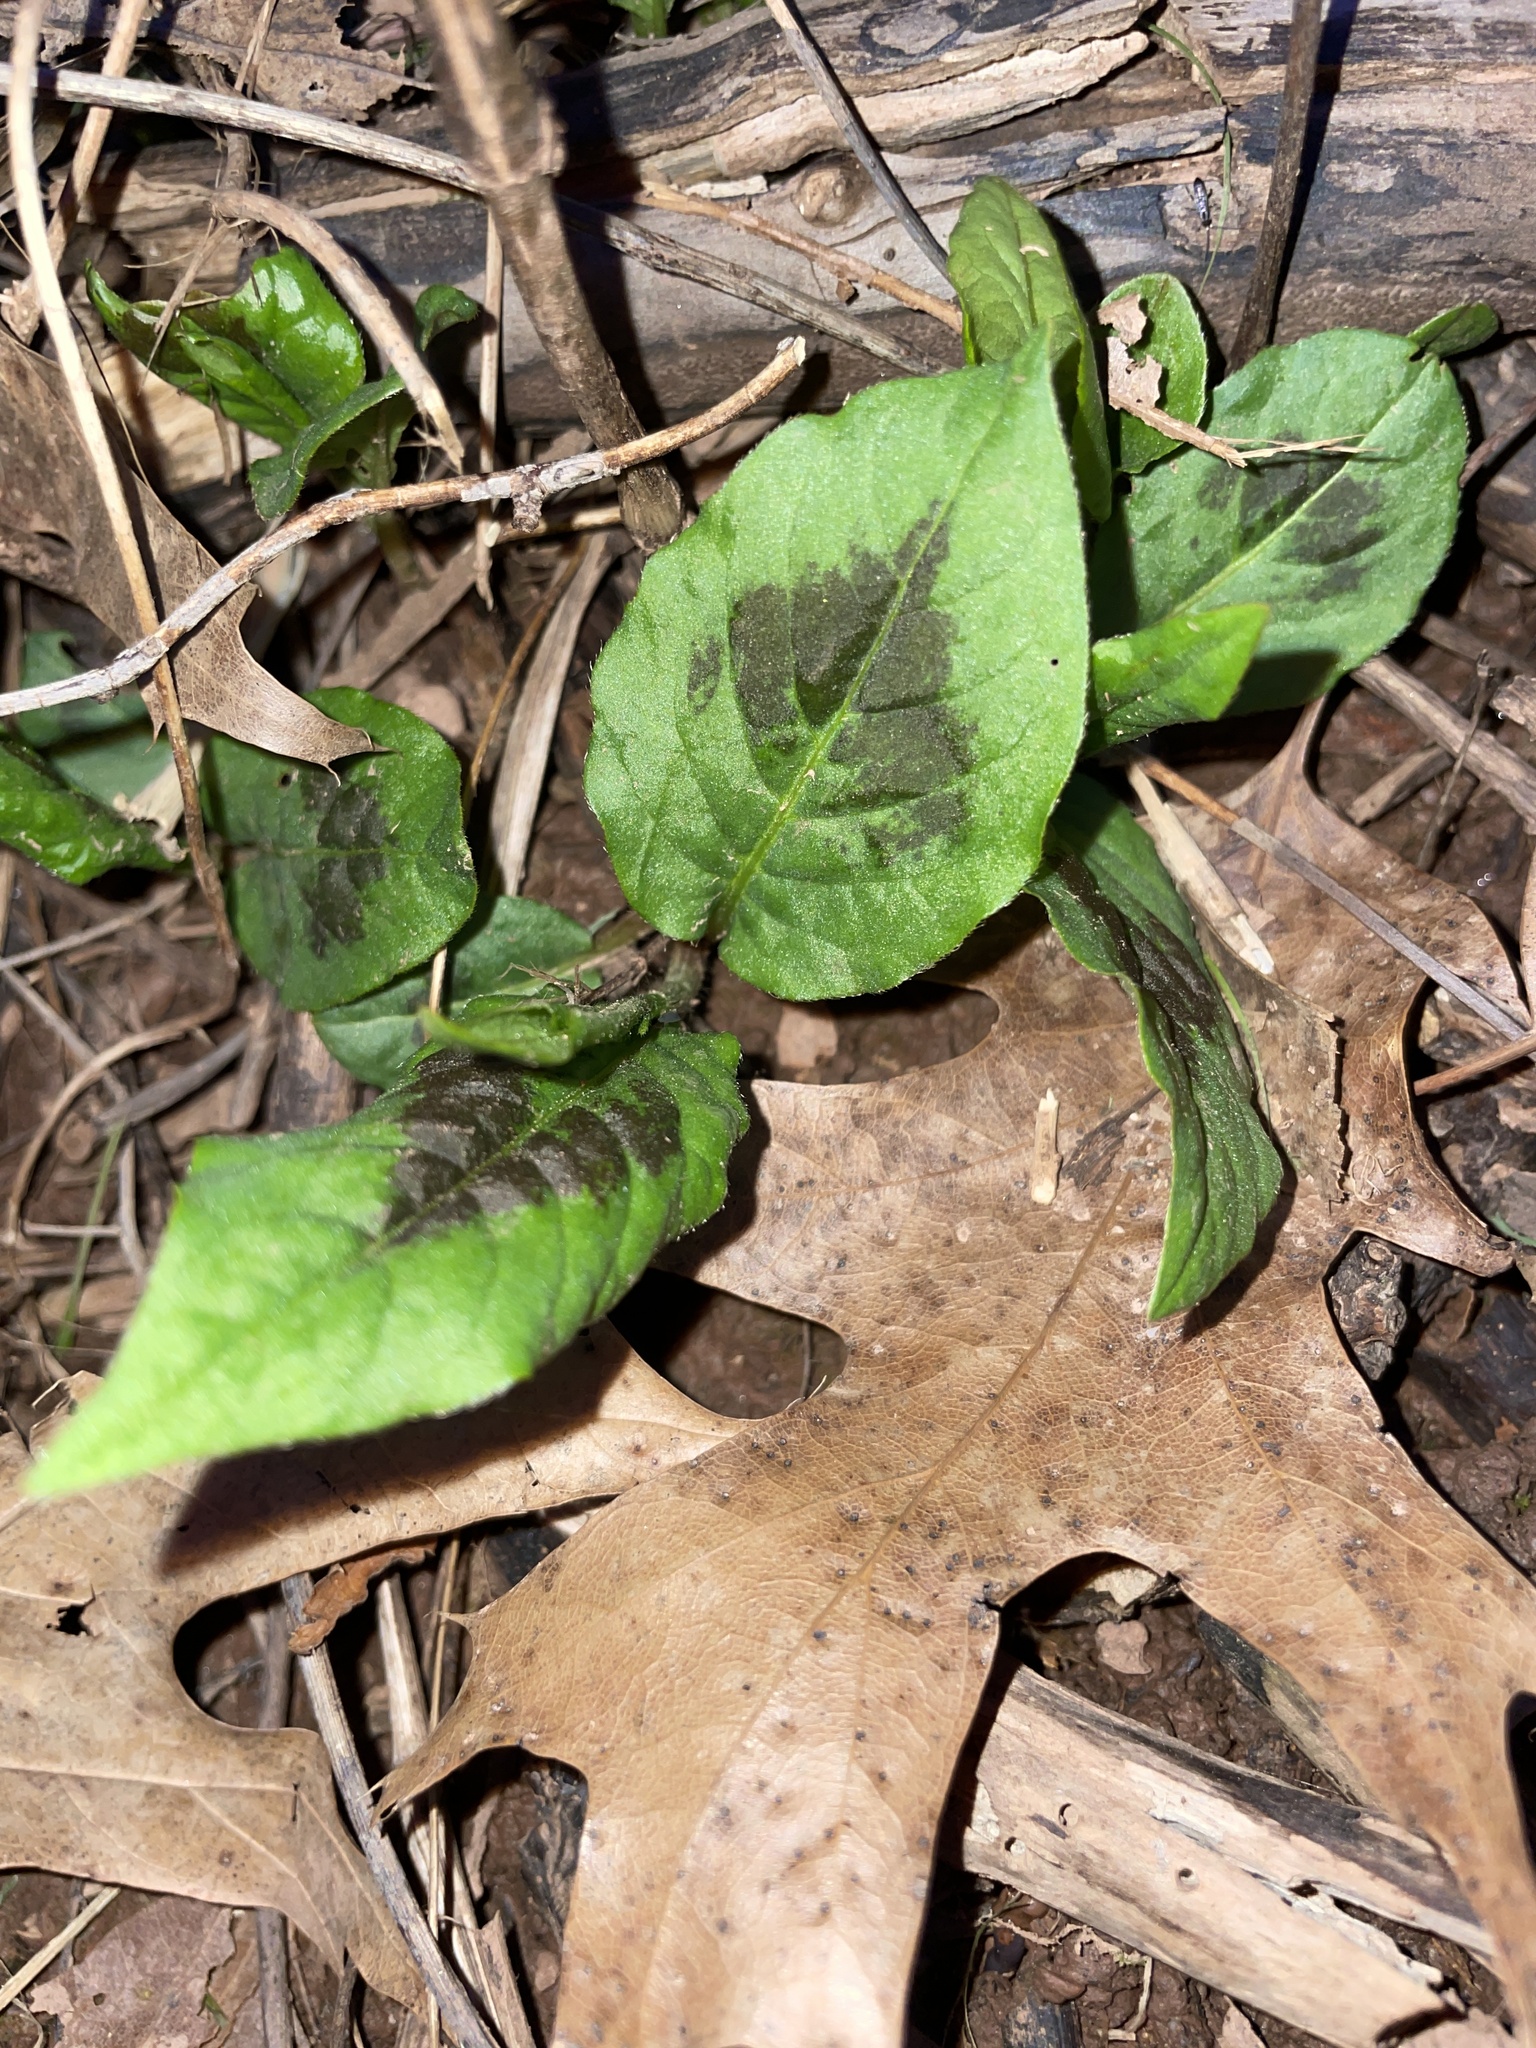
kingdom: Plantae
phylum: Tracheophyta
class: Magnoliopsida
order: Caryophyllales
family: Polygonaceae
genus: Persicaria
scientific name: Persicaria virginiana
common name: Jumpseed
